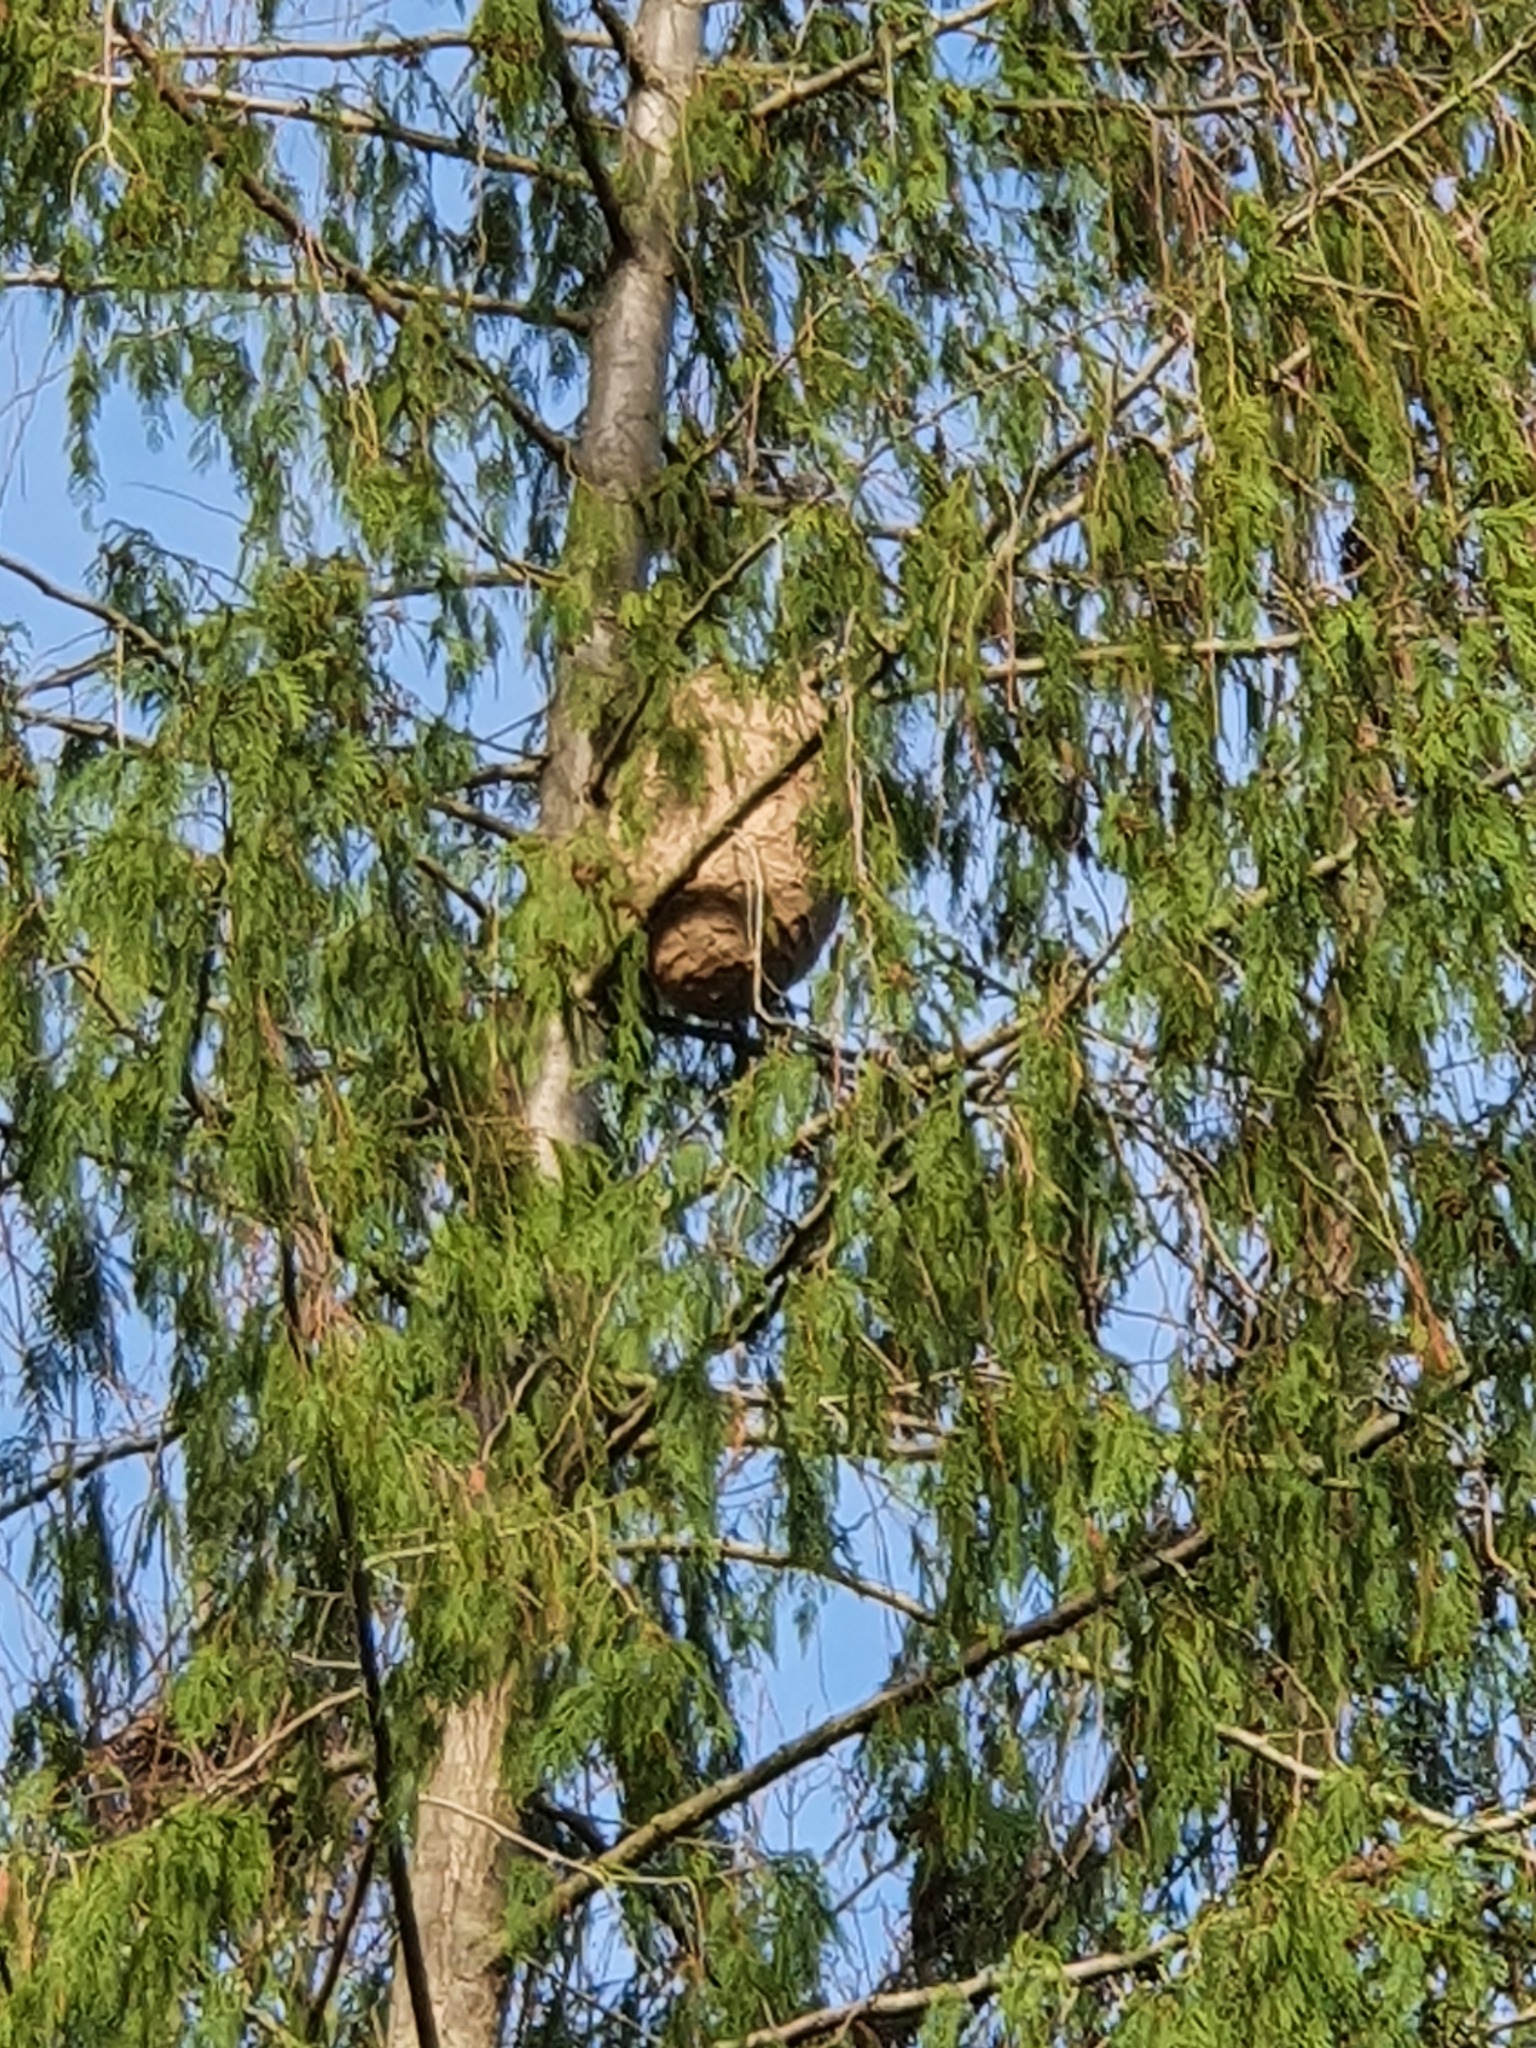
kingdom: Animalia
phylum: Arthropoda
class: Insecta
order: Hymenoptera
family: Vespidae
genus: Vespa
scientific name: Vespa velutina
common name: Asian hornet
